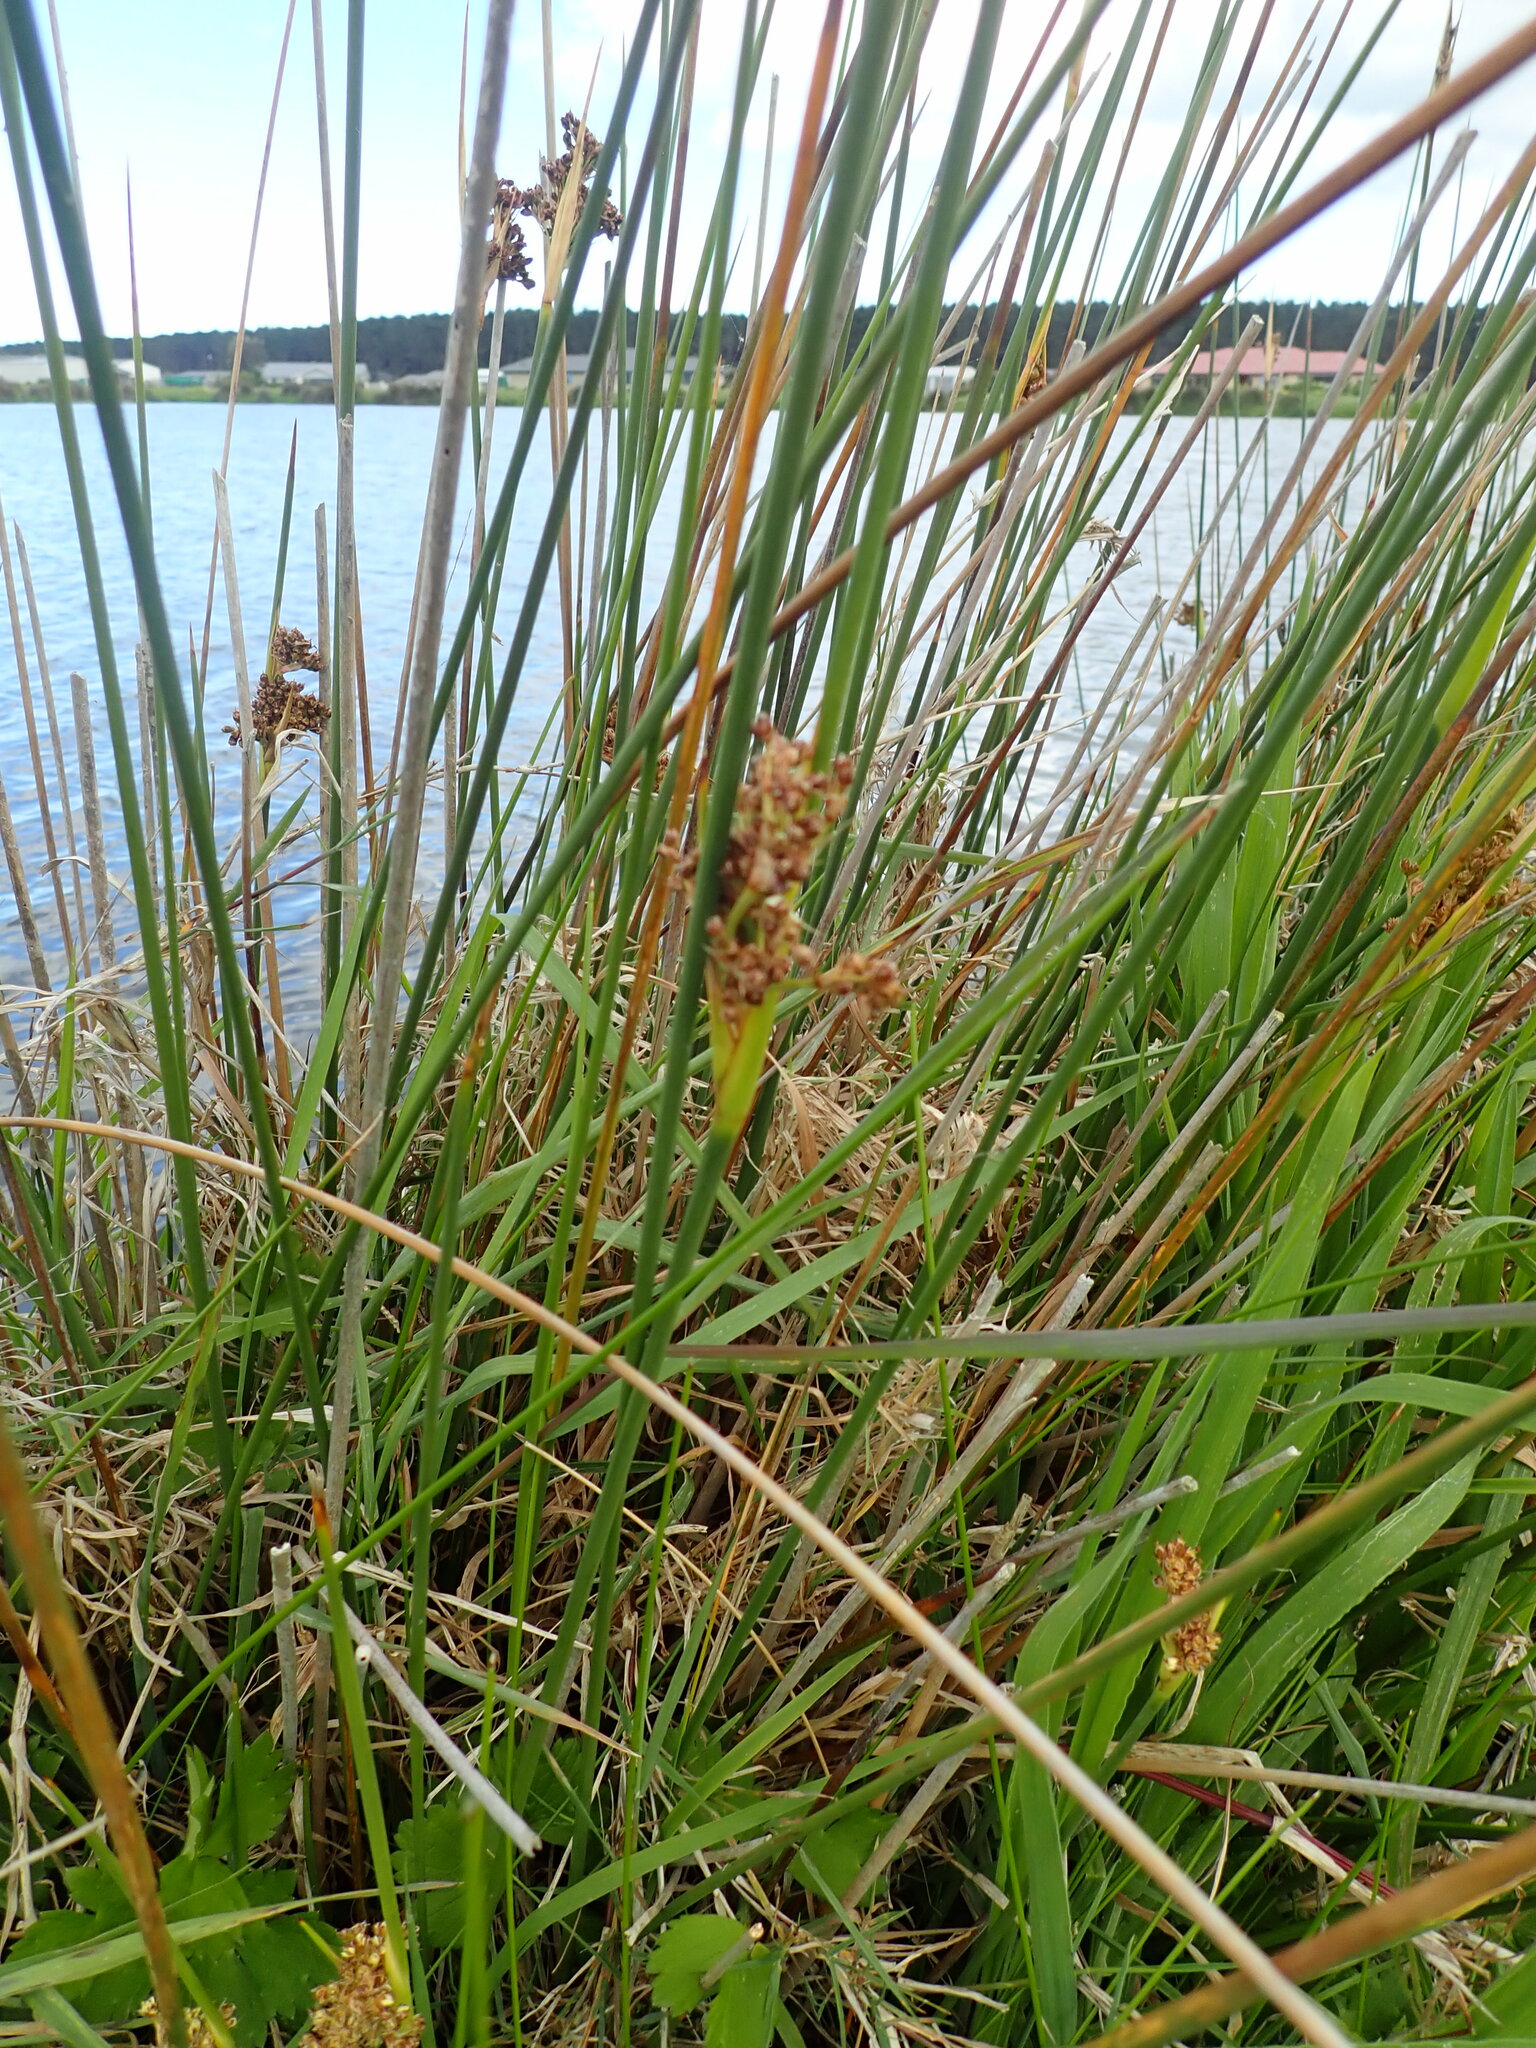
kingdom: Plantae
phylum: Tracheophyta
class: Liliopsida
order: Poales
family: Juncaceae
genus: Juncus
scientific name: Juncus acutus
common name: Sharp rush
